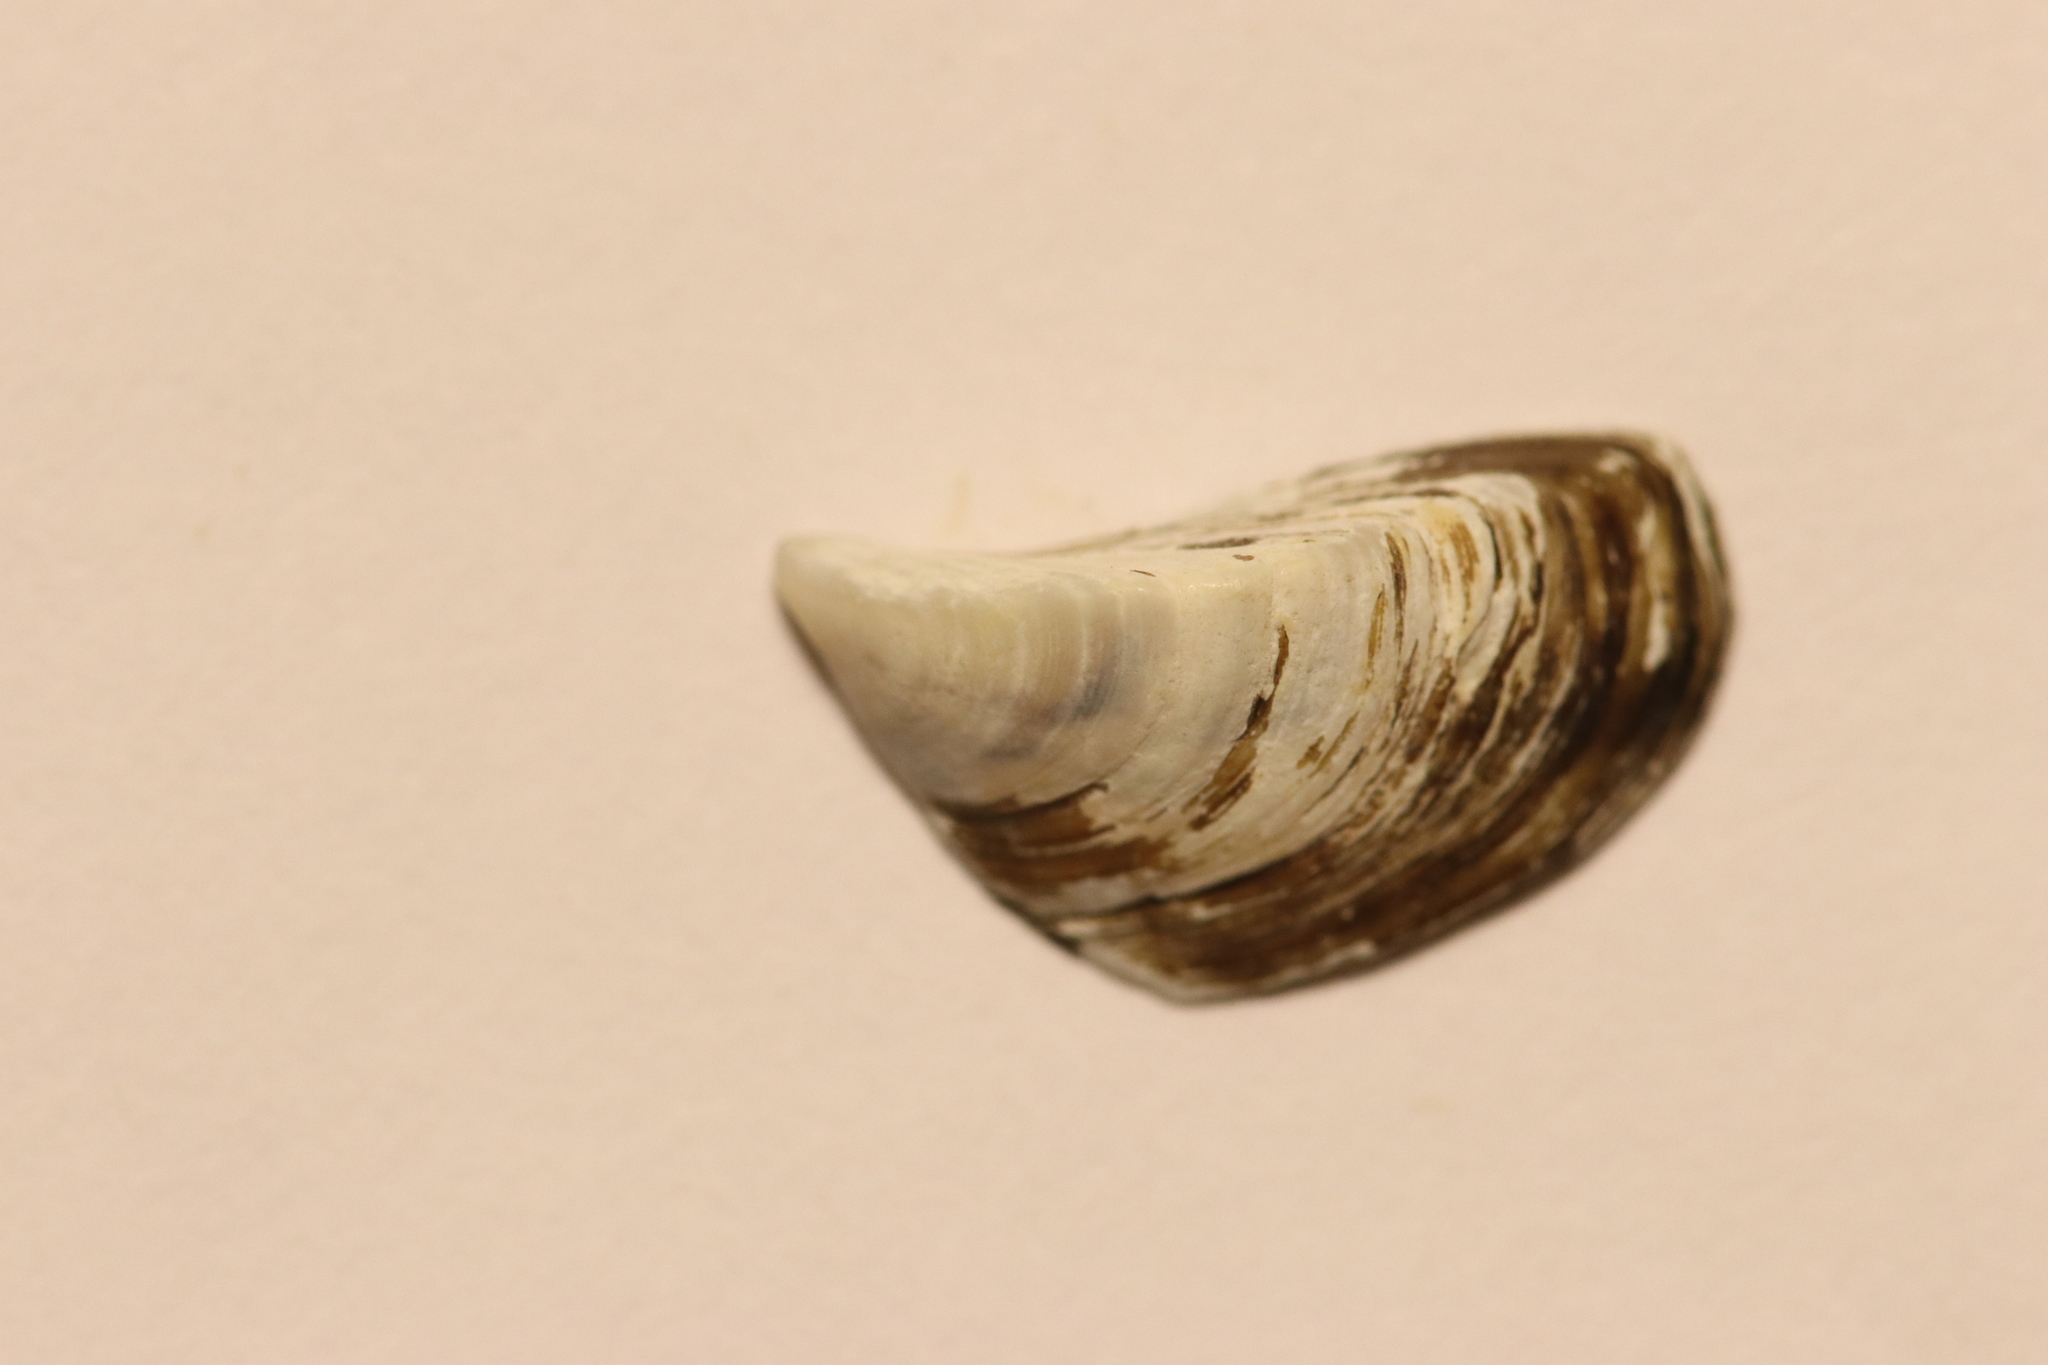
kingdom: Animalia
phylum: Mollusca
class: Bivalvia
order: Myida
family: Dreissenidae
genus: Dreissena
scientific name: Dreissena polymorpha
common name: Zebra mussel
